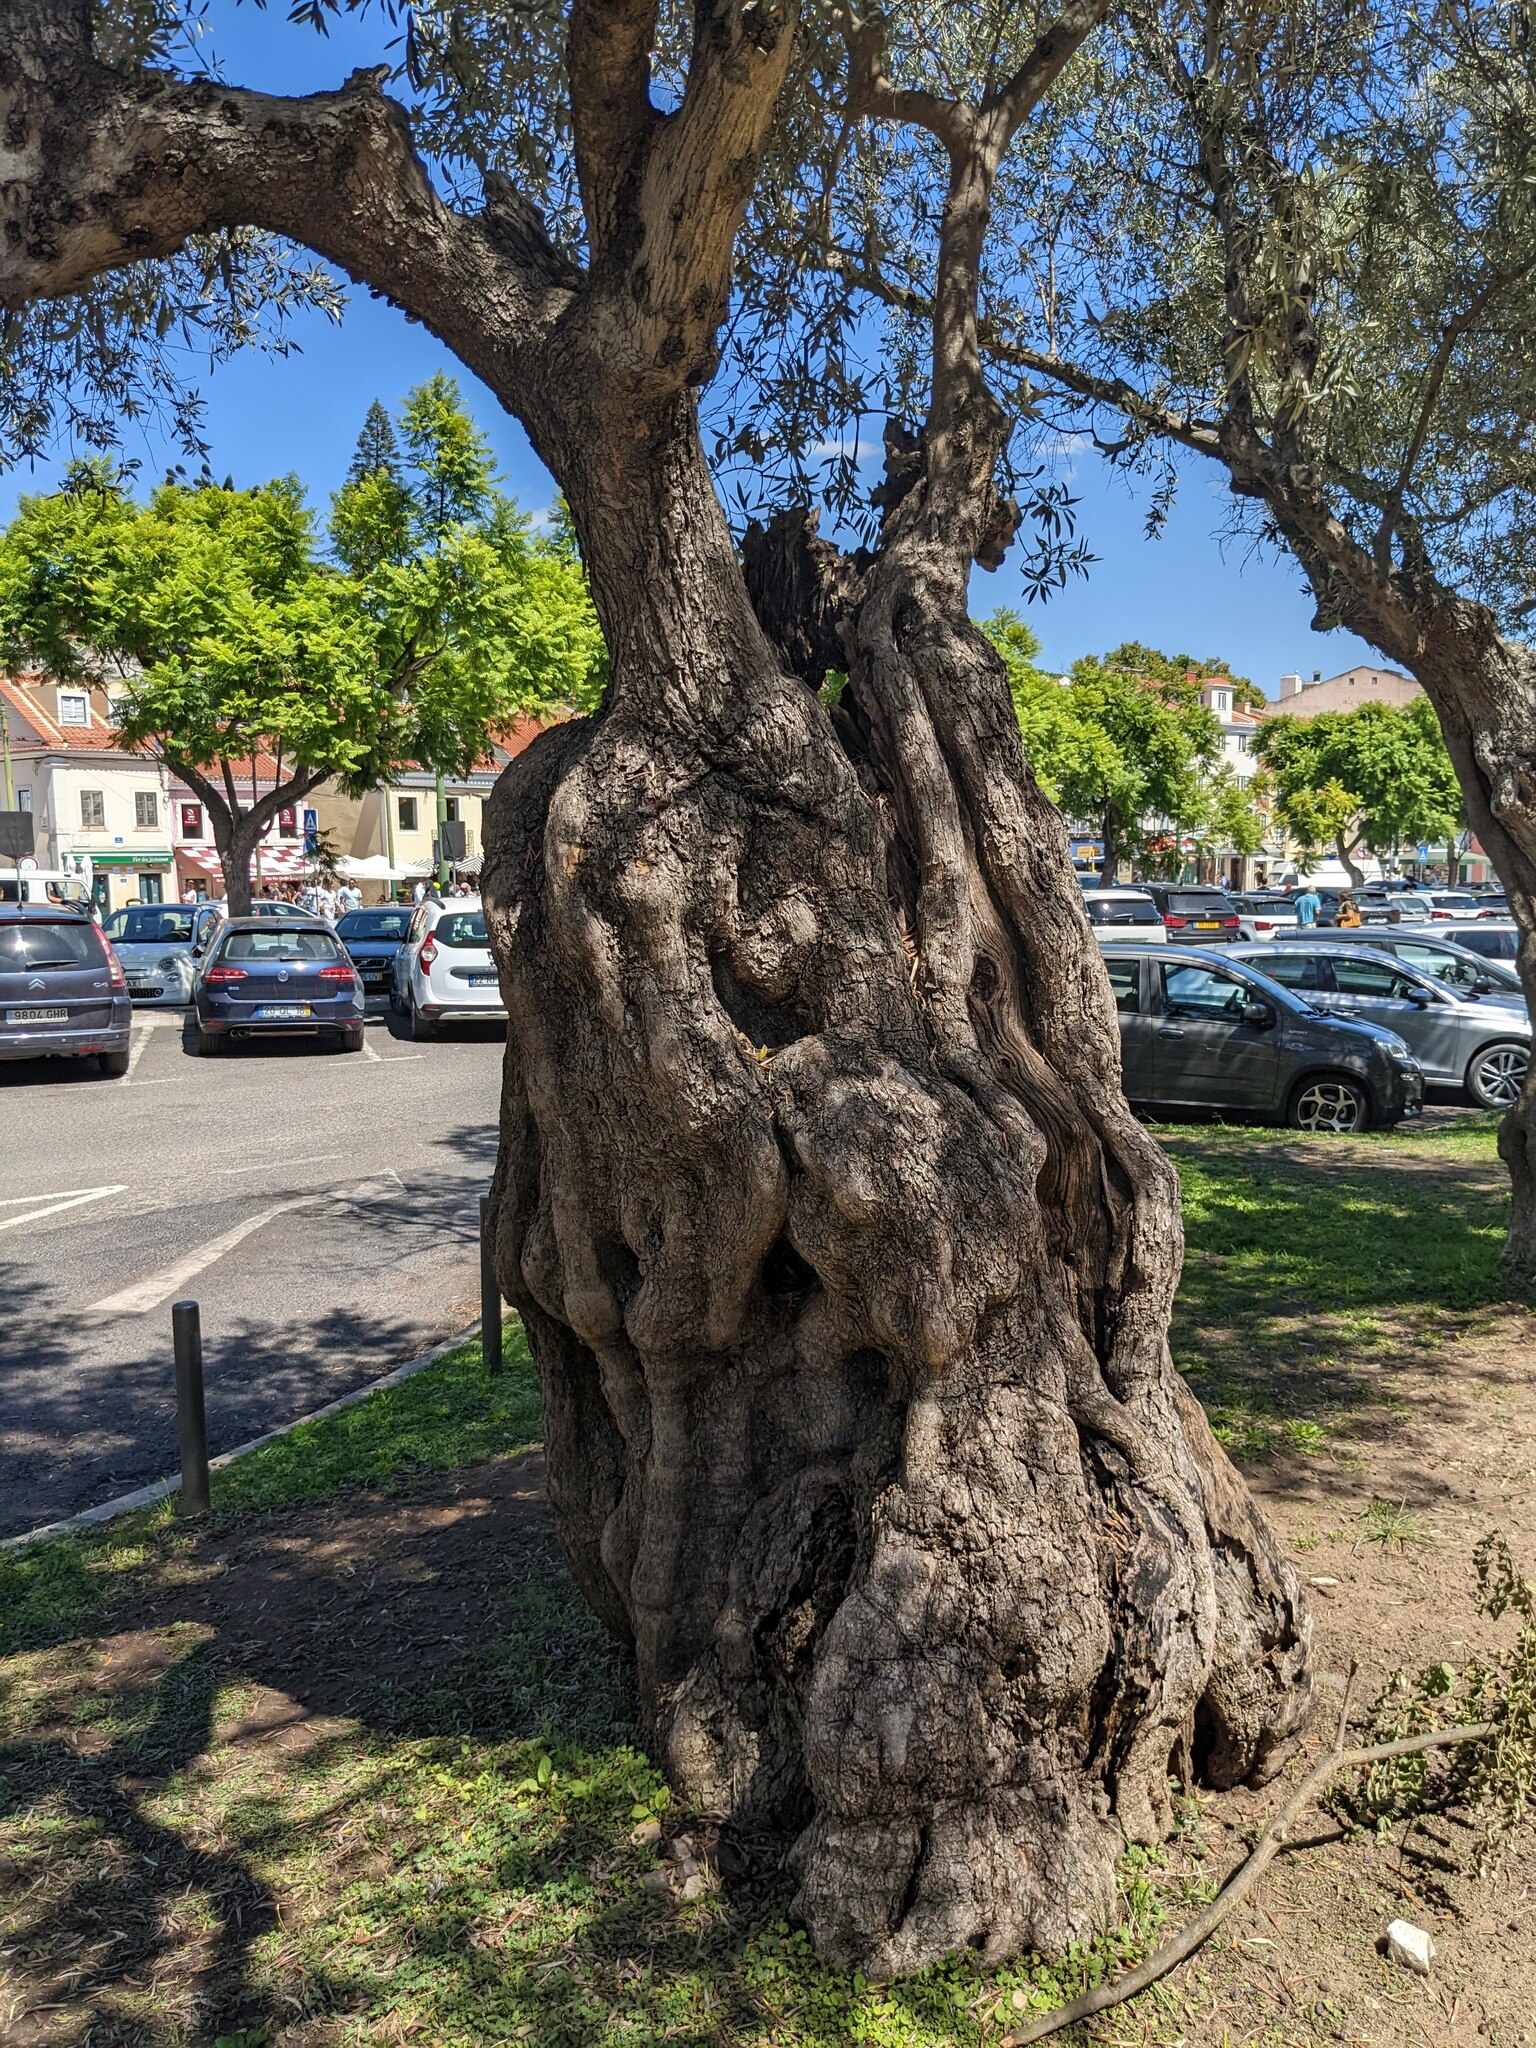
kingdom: Plantae
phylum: Tracheophyta
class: Magnoliopsida
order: Lamiales
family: Oleaceae
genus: Olea
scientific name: Olea europaea
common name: Olive
